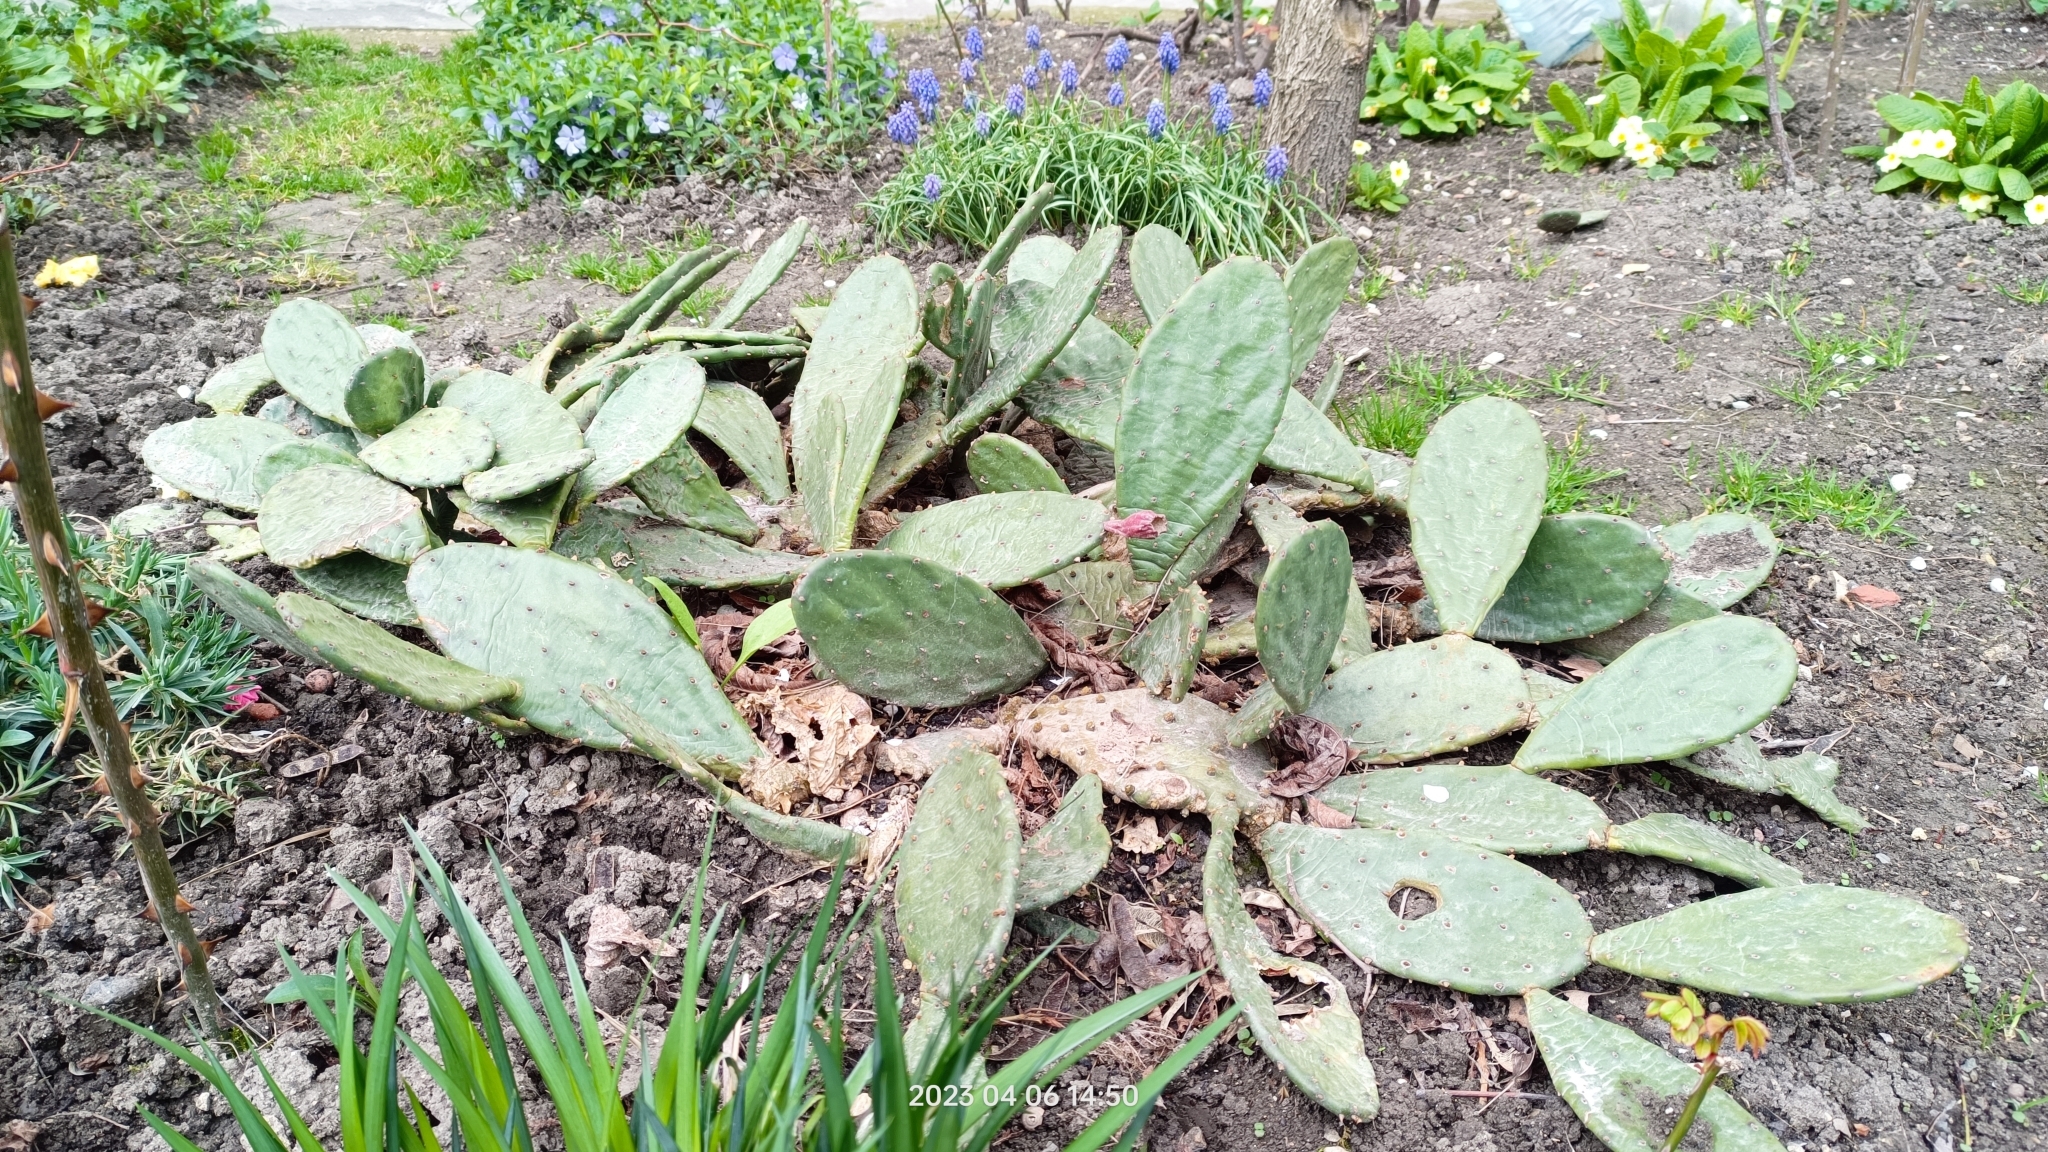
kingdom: Plantae
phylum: Tracheophyta
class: Magnoliopsida
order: Caryophyllales
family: Cactaceae
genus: Opuntia
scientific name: Opuntia humifusa
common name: Eastern prickly-pear
